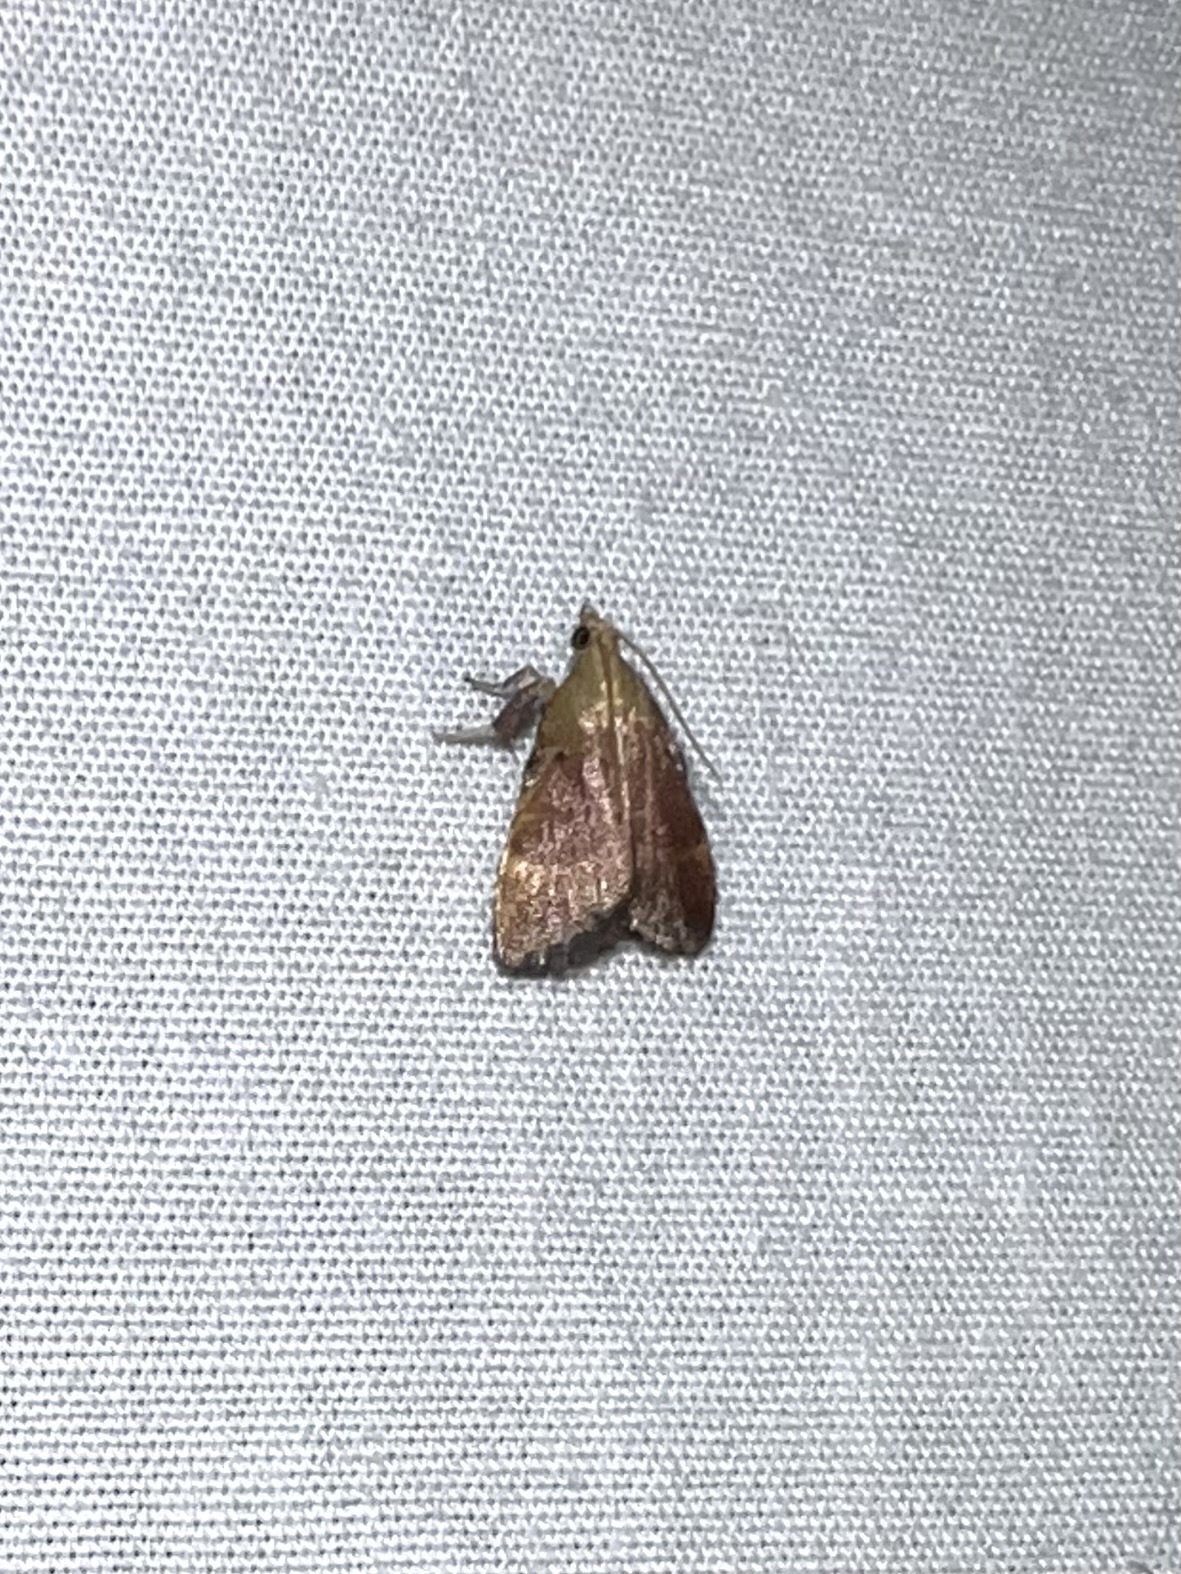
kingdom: Animalia
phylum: Arthropoda
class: Insecta
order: Lepidoptera
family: Pyralidae
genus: Condylolomia
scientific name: Condylolomia participialis
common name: Drab condylolomia moth
